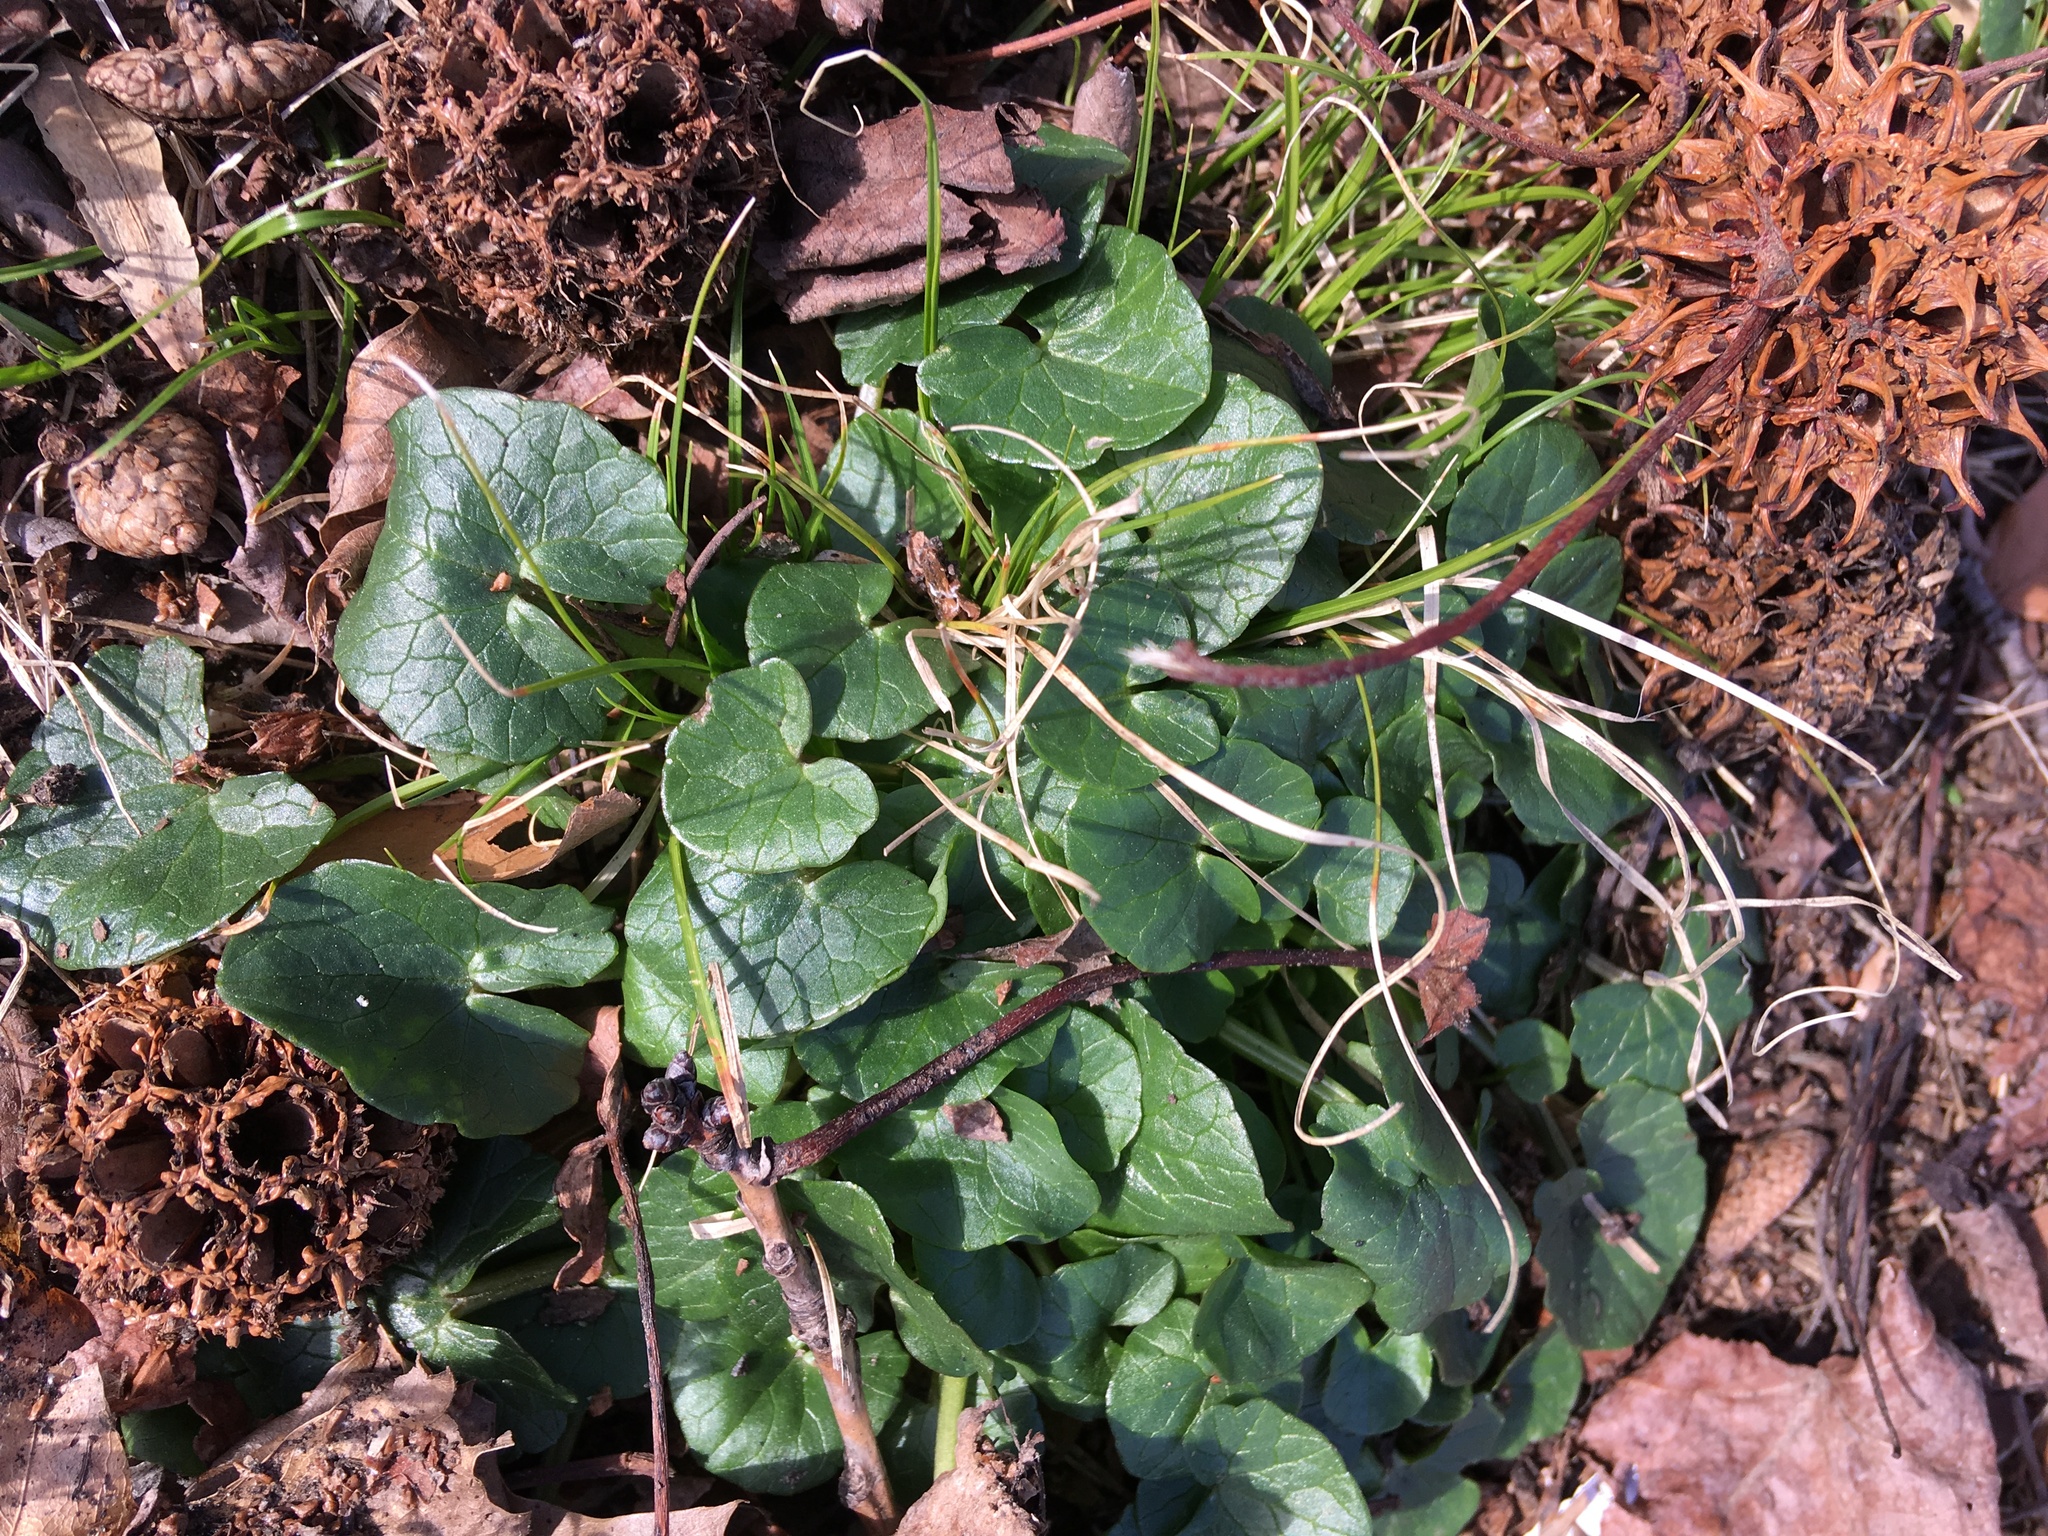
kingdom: Plantae
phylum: Tracheophyta
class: Magnoliopsida
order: Ranunculales
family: Ranunculaceae
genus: Ficaria
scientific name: Ficaria verna
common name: Lesser celandine
